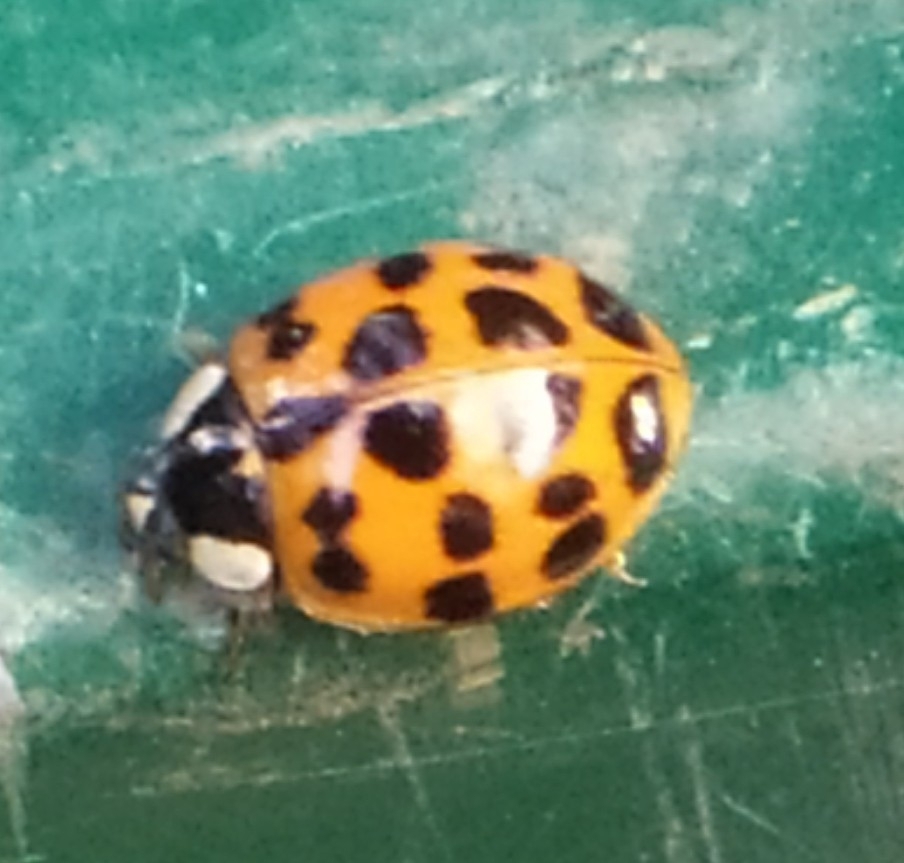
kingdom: Animalia
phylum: Arthropoda
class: Insecta
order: Coleoptera
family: Coccinellidae
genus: Harmonia
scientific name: Harmonia axyridis
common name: Harlequin ladybird
